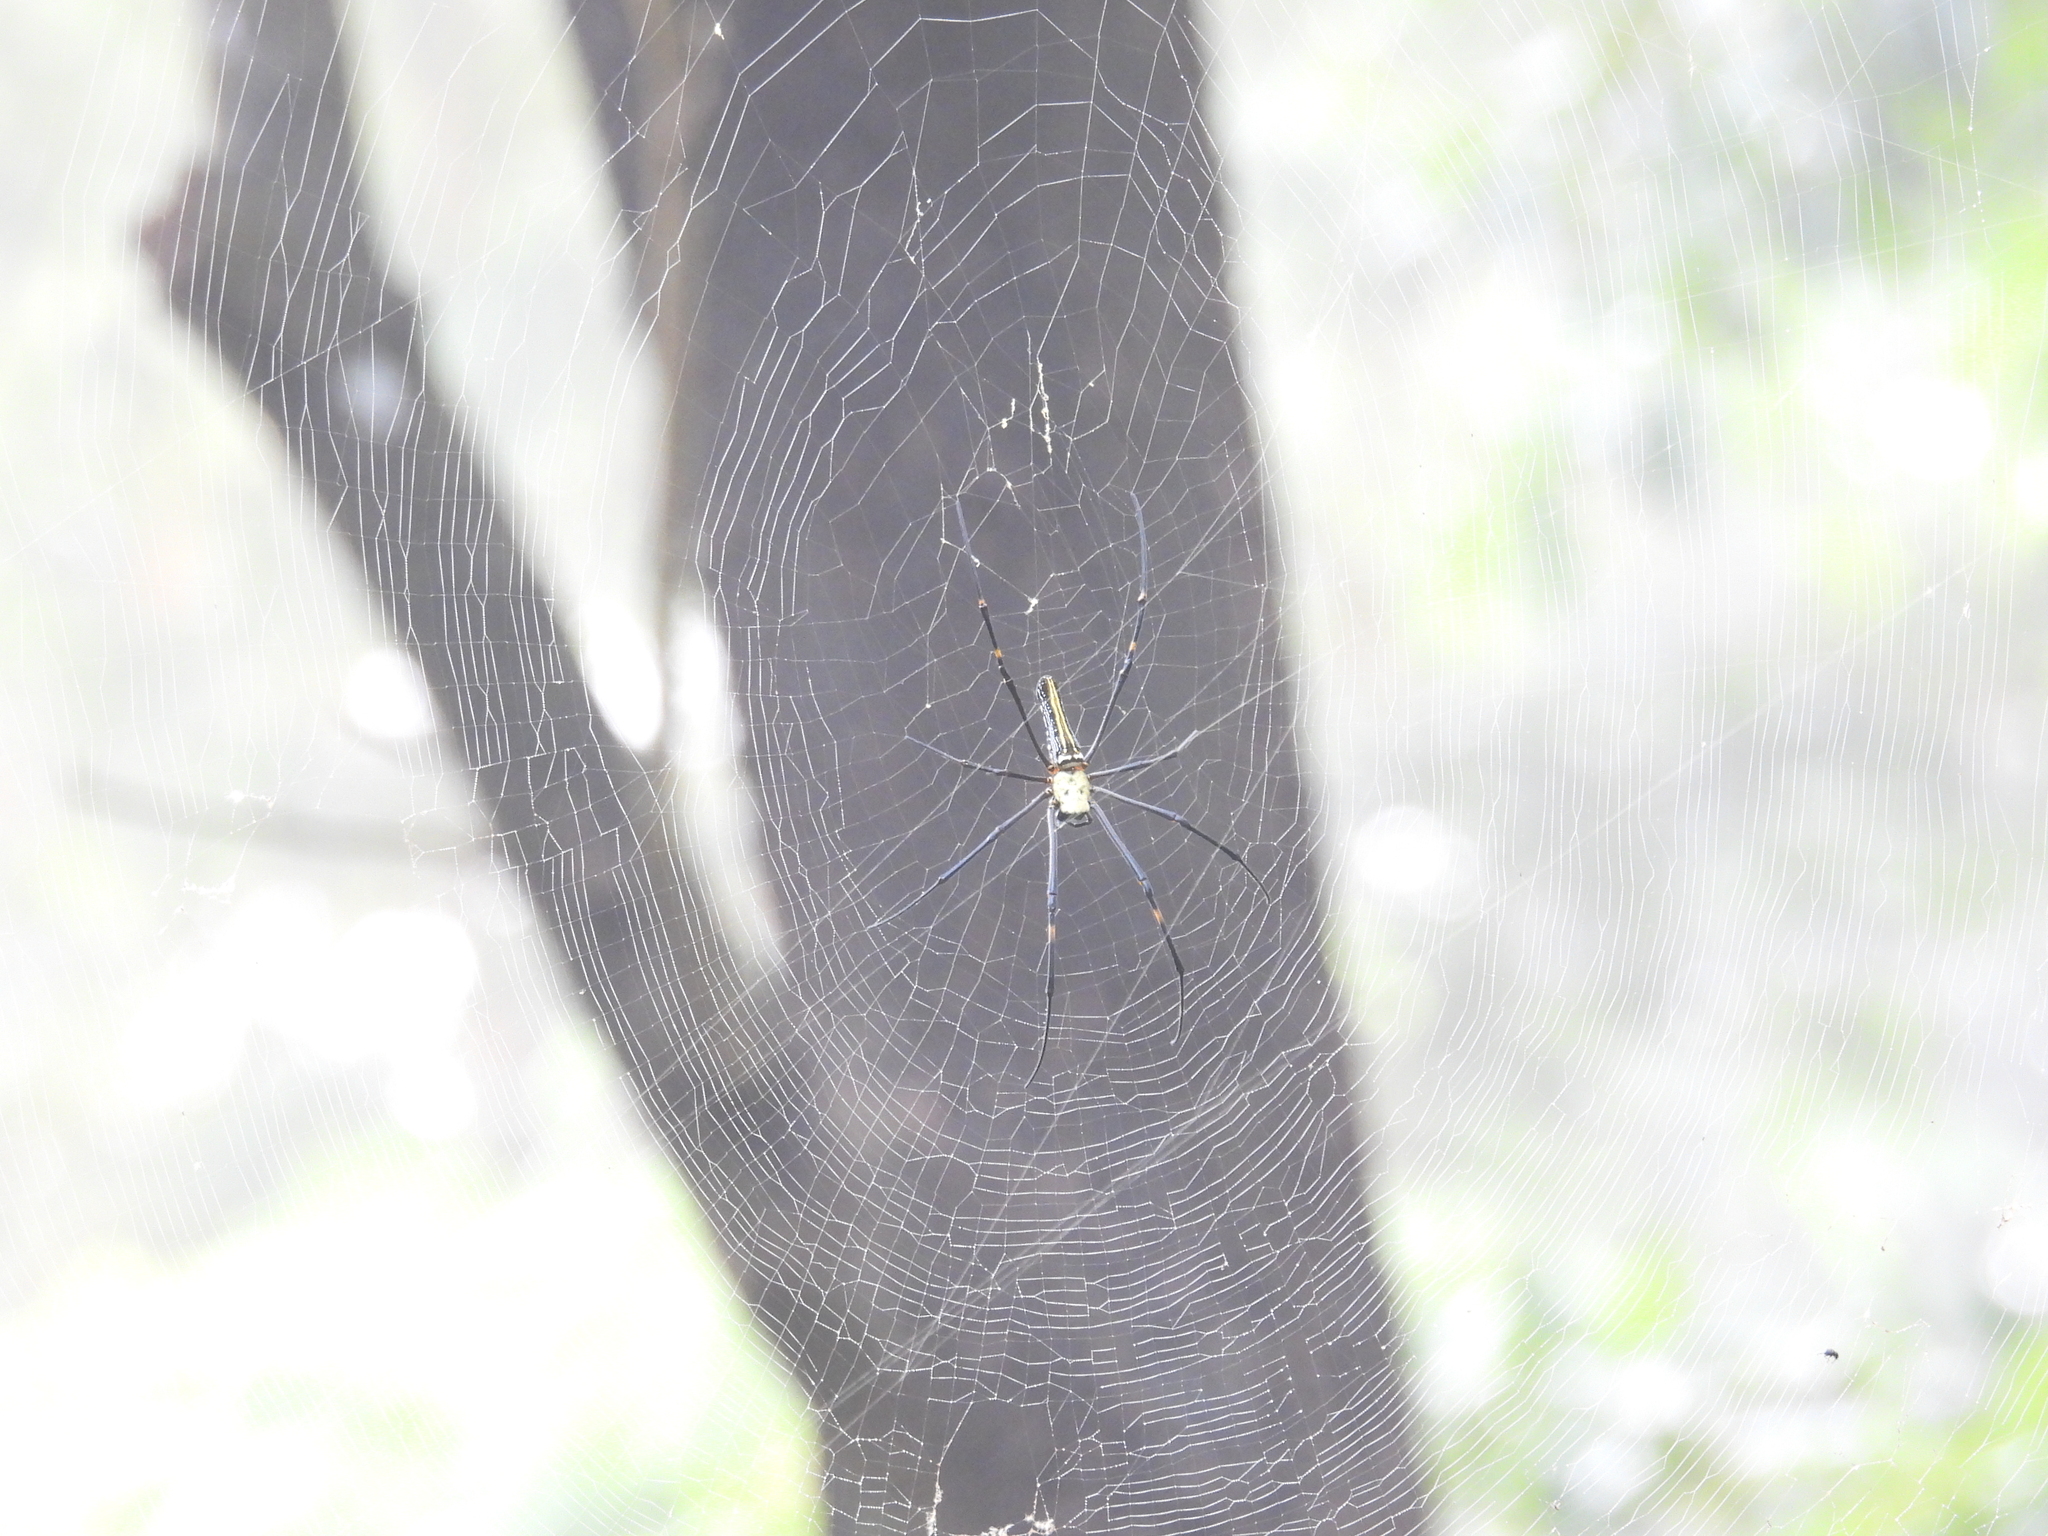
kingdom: Animalia
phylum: Arthropoda
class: Arachnida
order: Araneae
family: Araneidae
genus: Nephila
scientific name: Nephila pilipes
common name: Giant golden orb weaver
